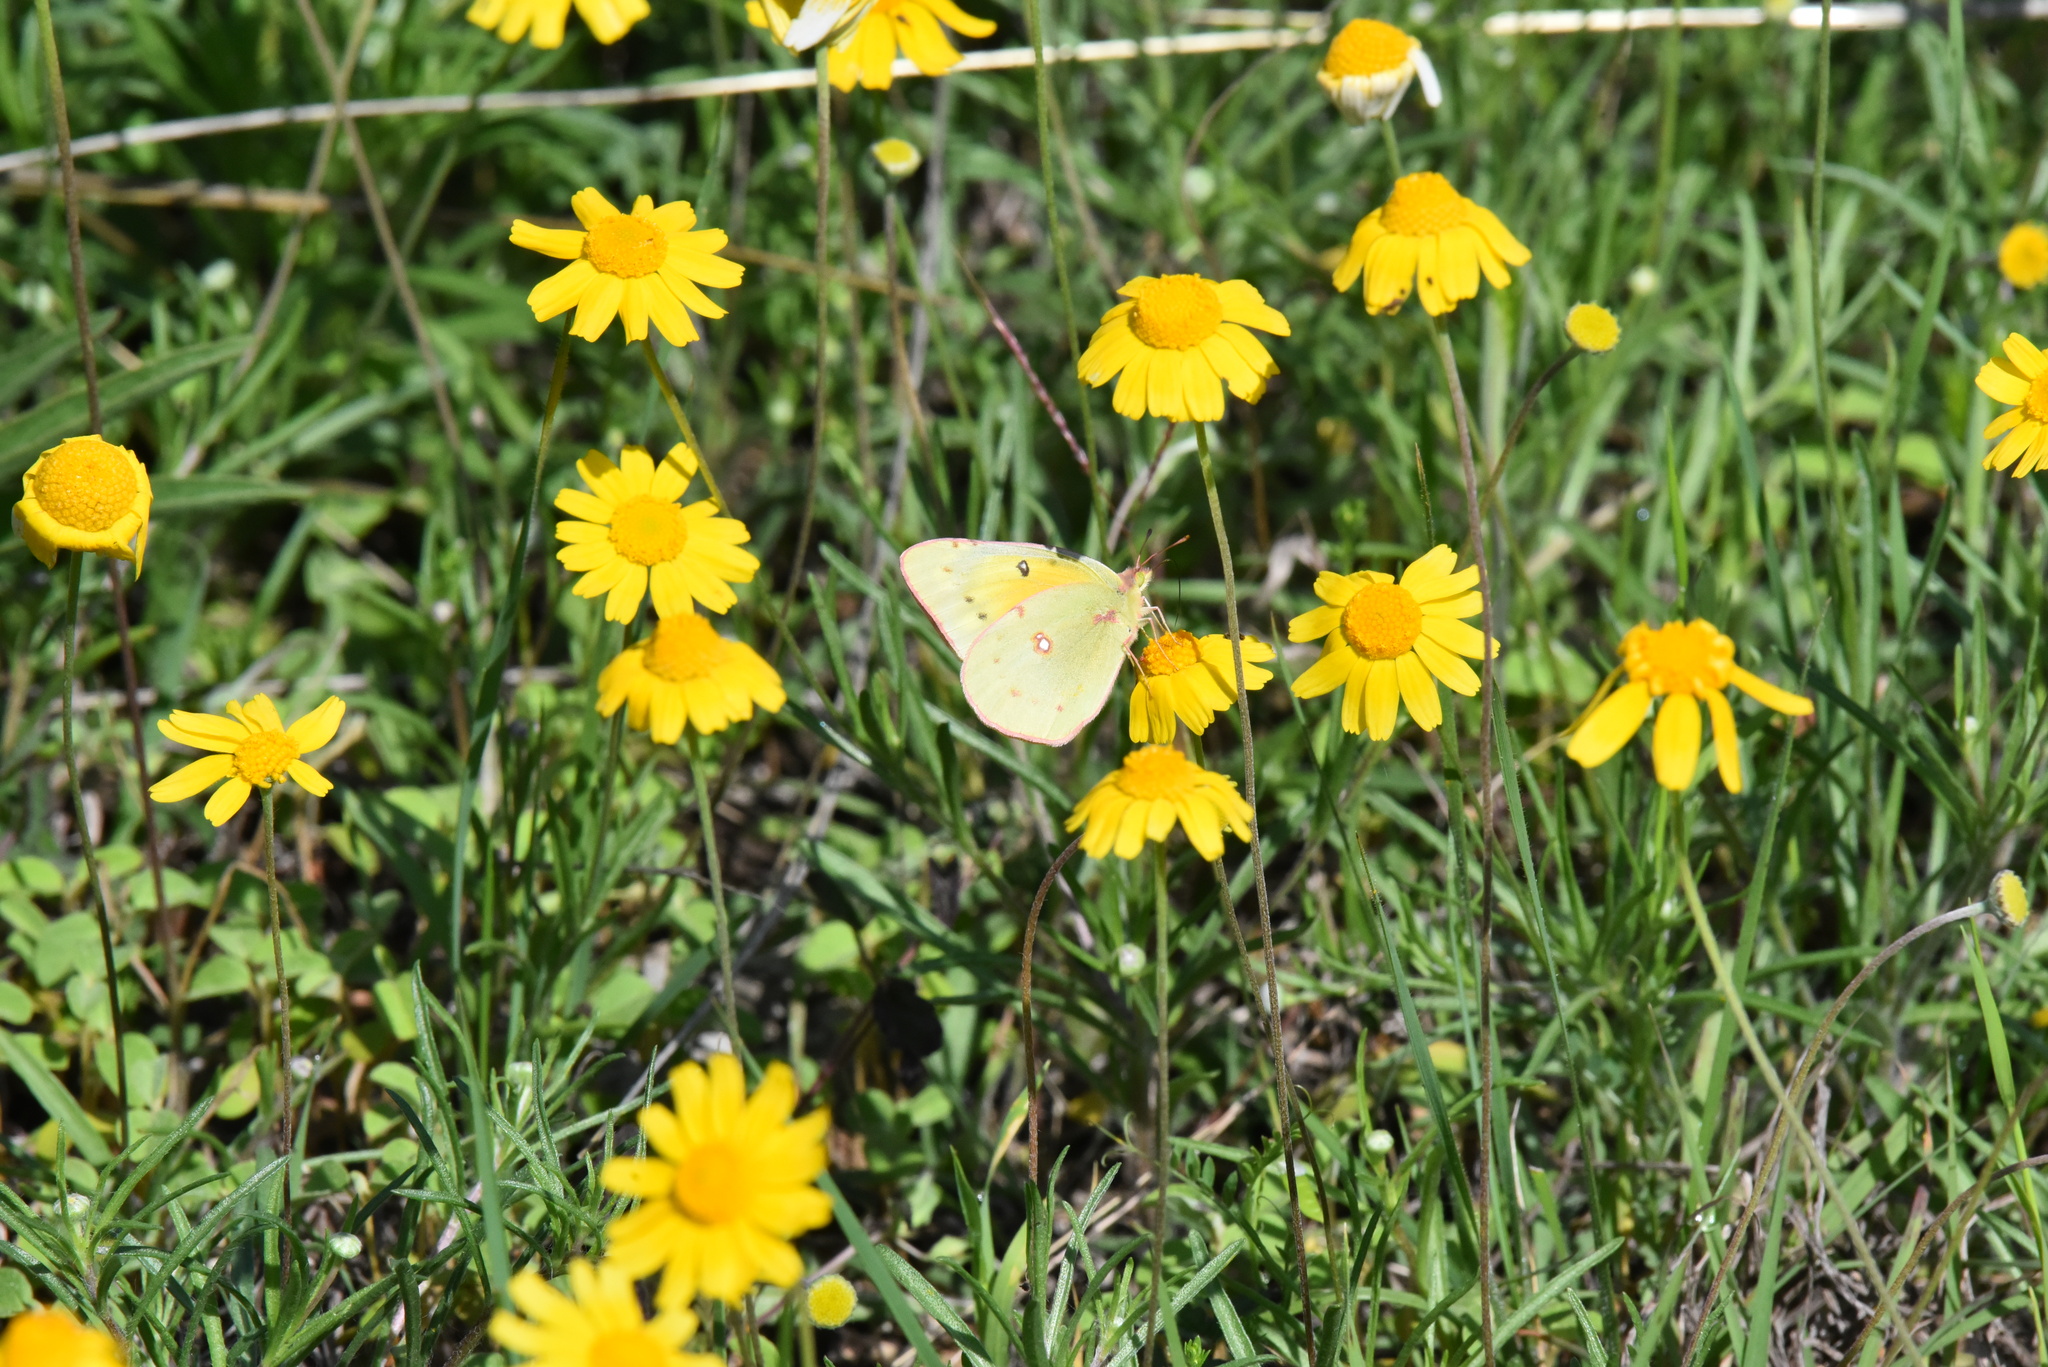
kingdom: Animalia
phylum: Arthropoda
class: Insecta
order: Lepidoptera
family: Pieridae
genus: Colias
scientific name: Colias eurytheme
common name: Alfalfa butterfly
